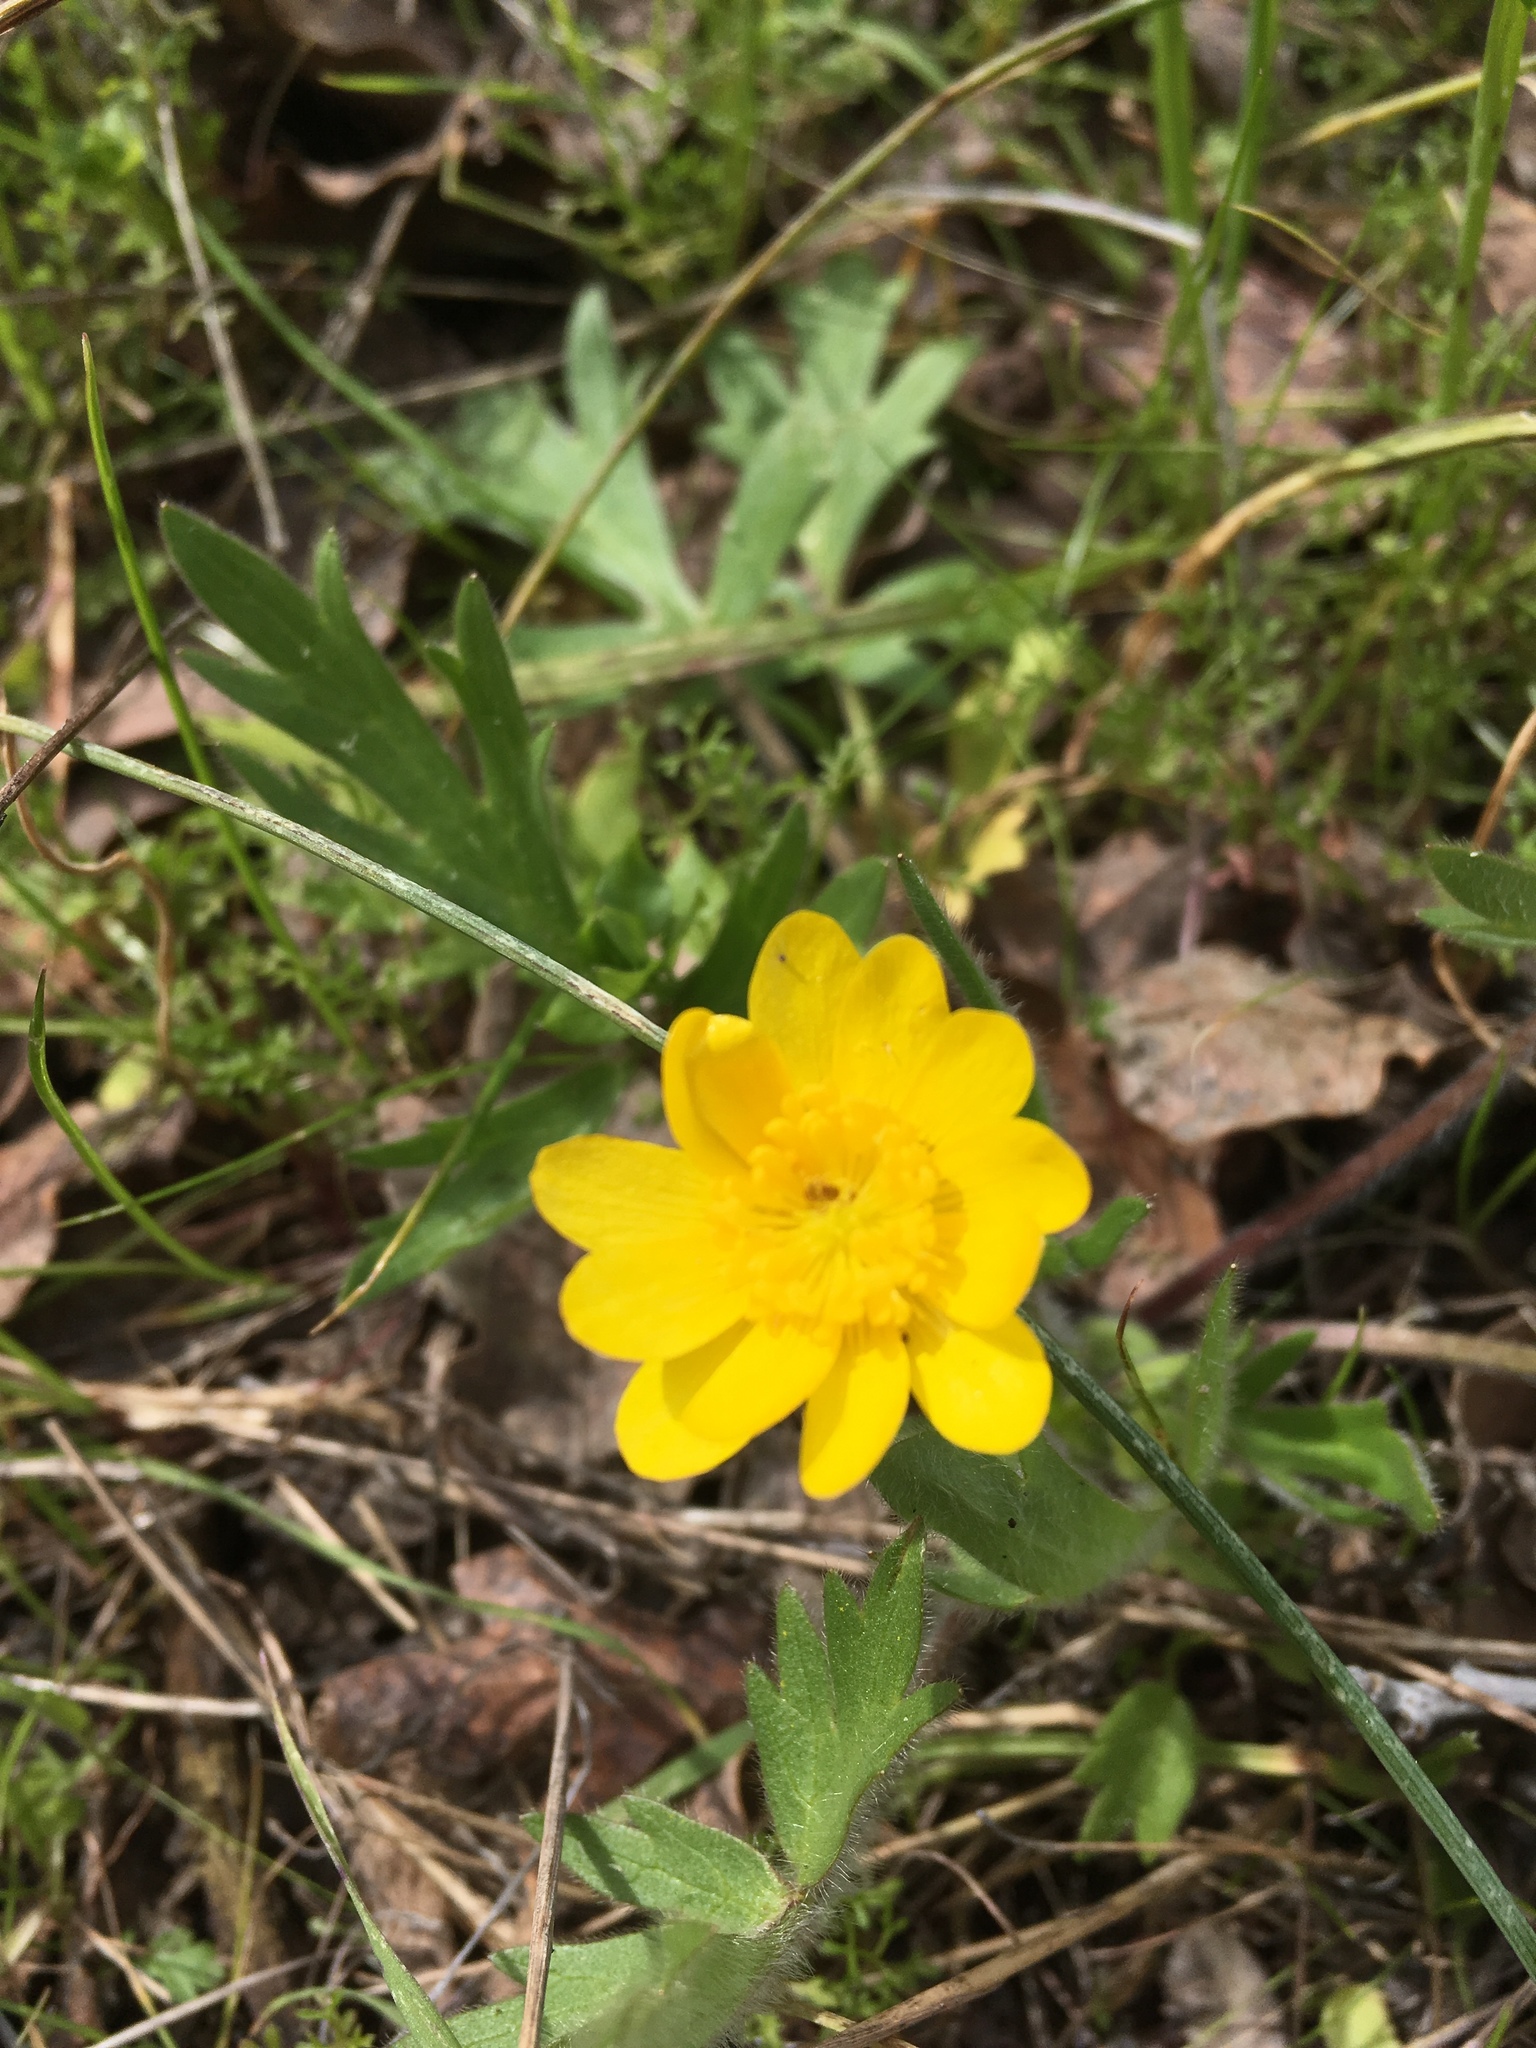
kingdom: Plantae
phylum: Tracheophyta
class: Magnoliopsida
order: Ranunculales
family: Ranunculaceae
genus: Ranunculus
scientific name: Ranunculus californicus
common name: California buttercup
